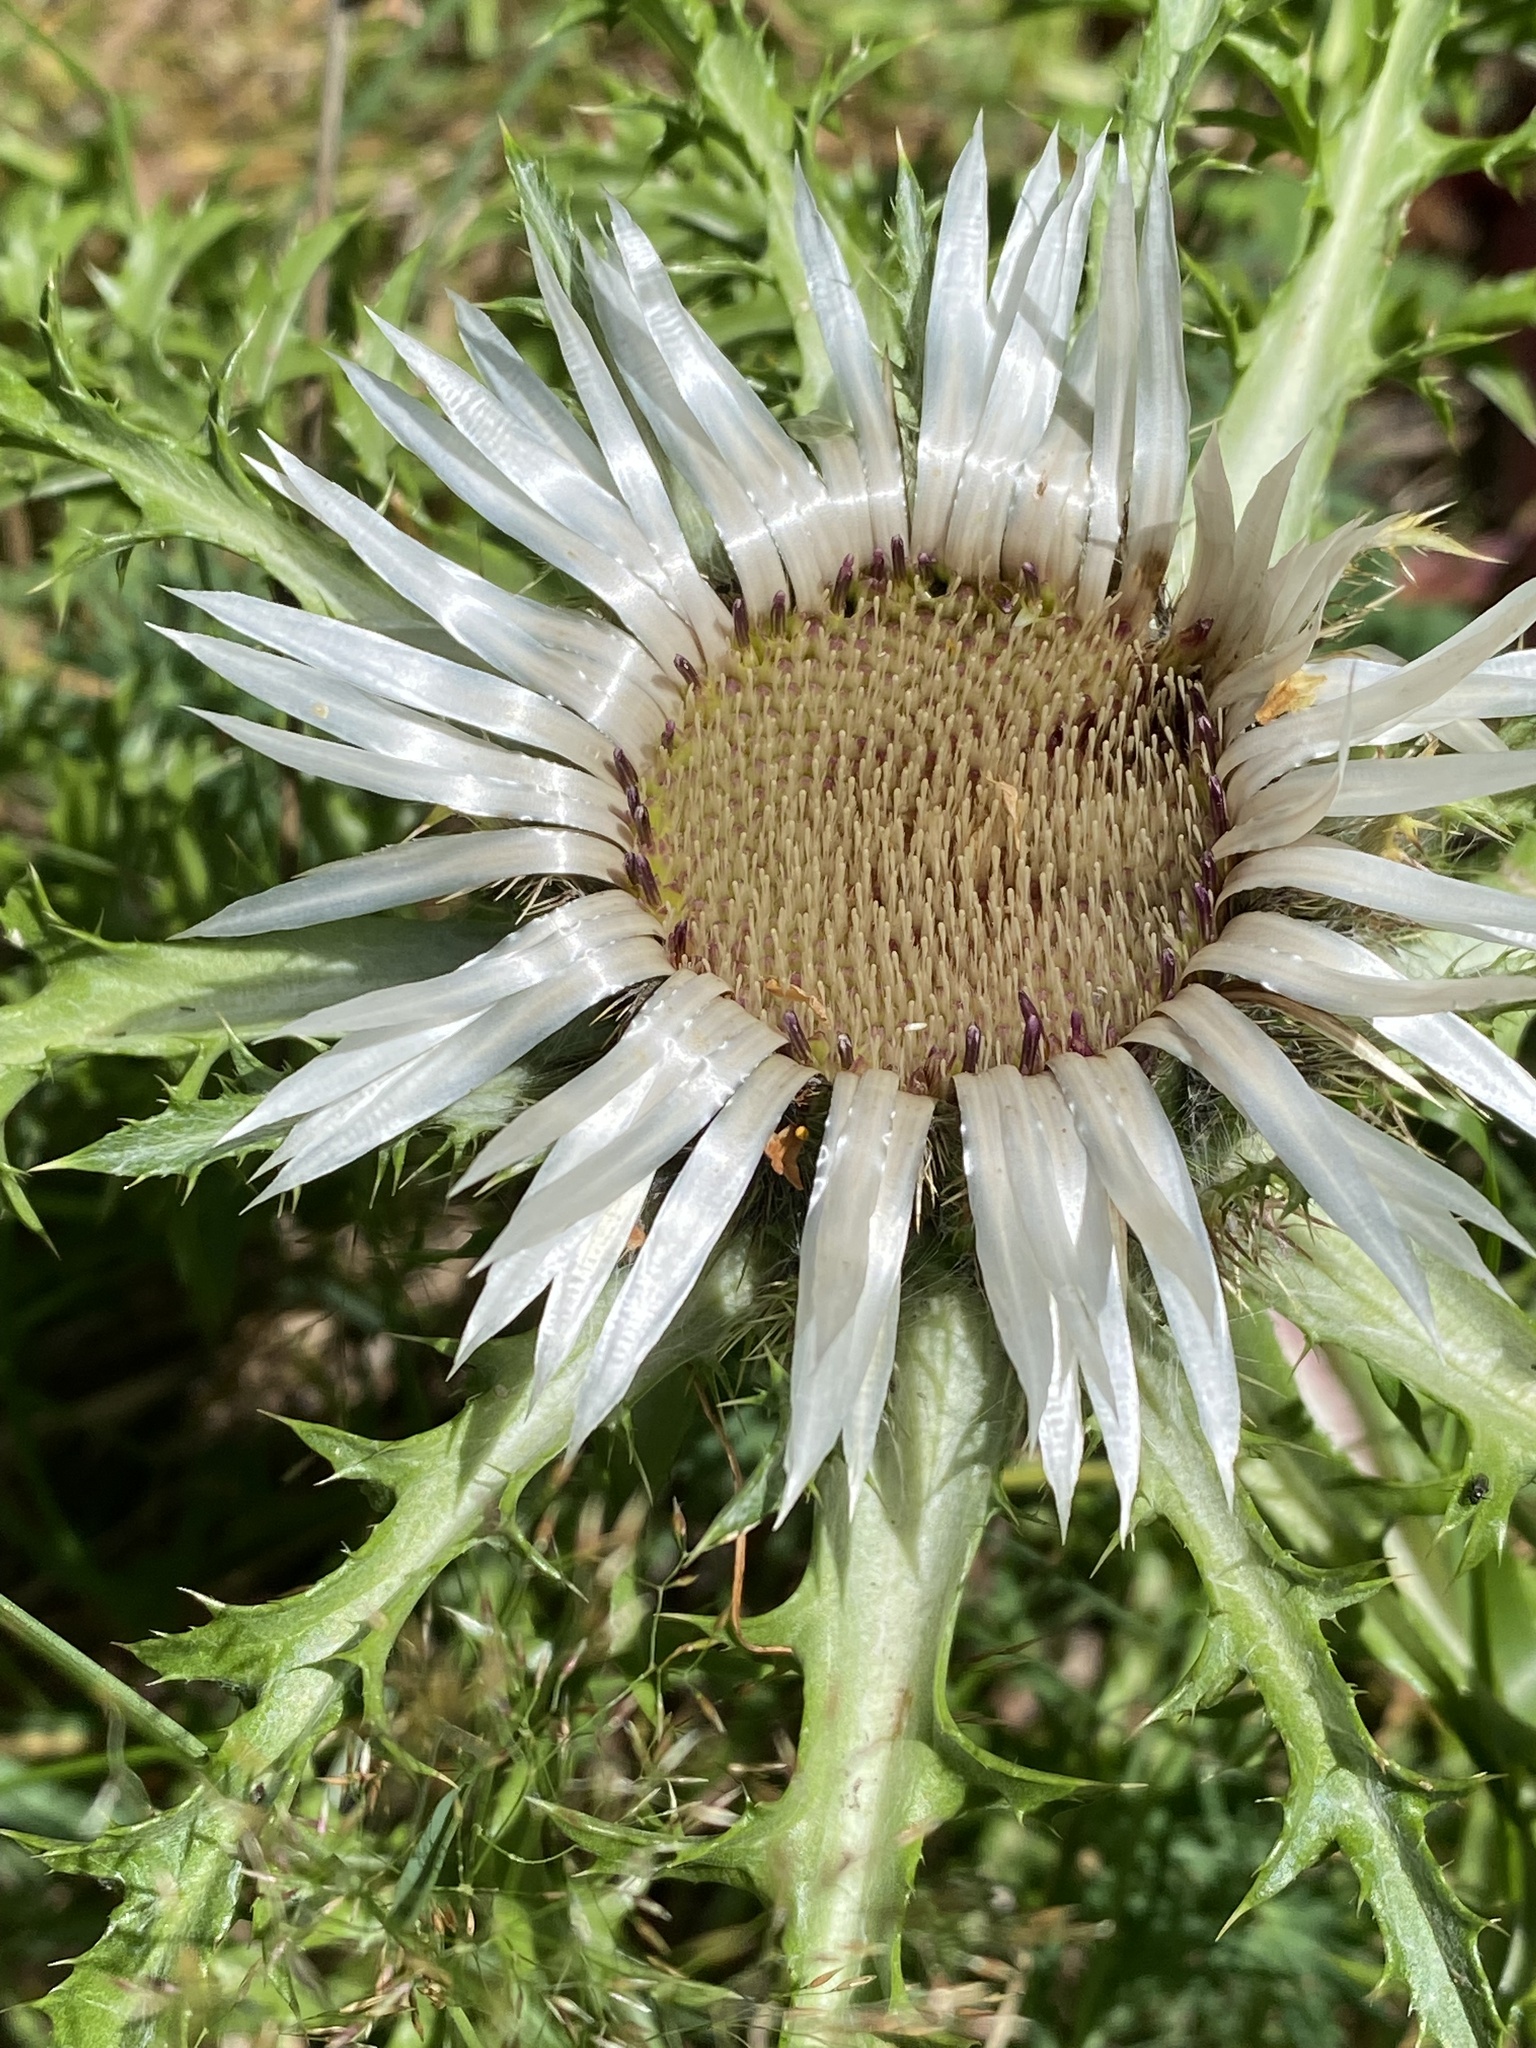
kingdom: Plantae
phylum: Tracheophyta
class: Magnoliopsida
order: Asterales
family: Asteraceae
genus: Carlina
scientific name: Carlina acaulis
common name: Stemless carline thistle
